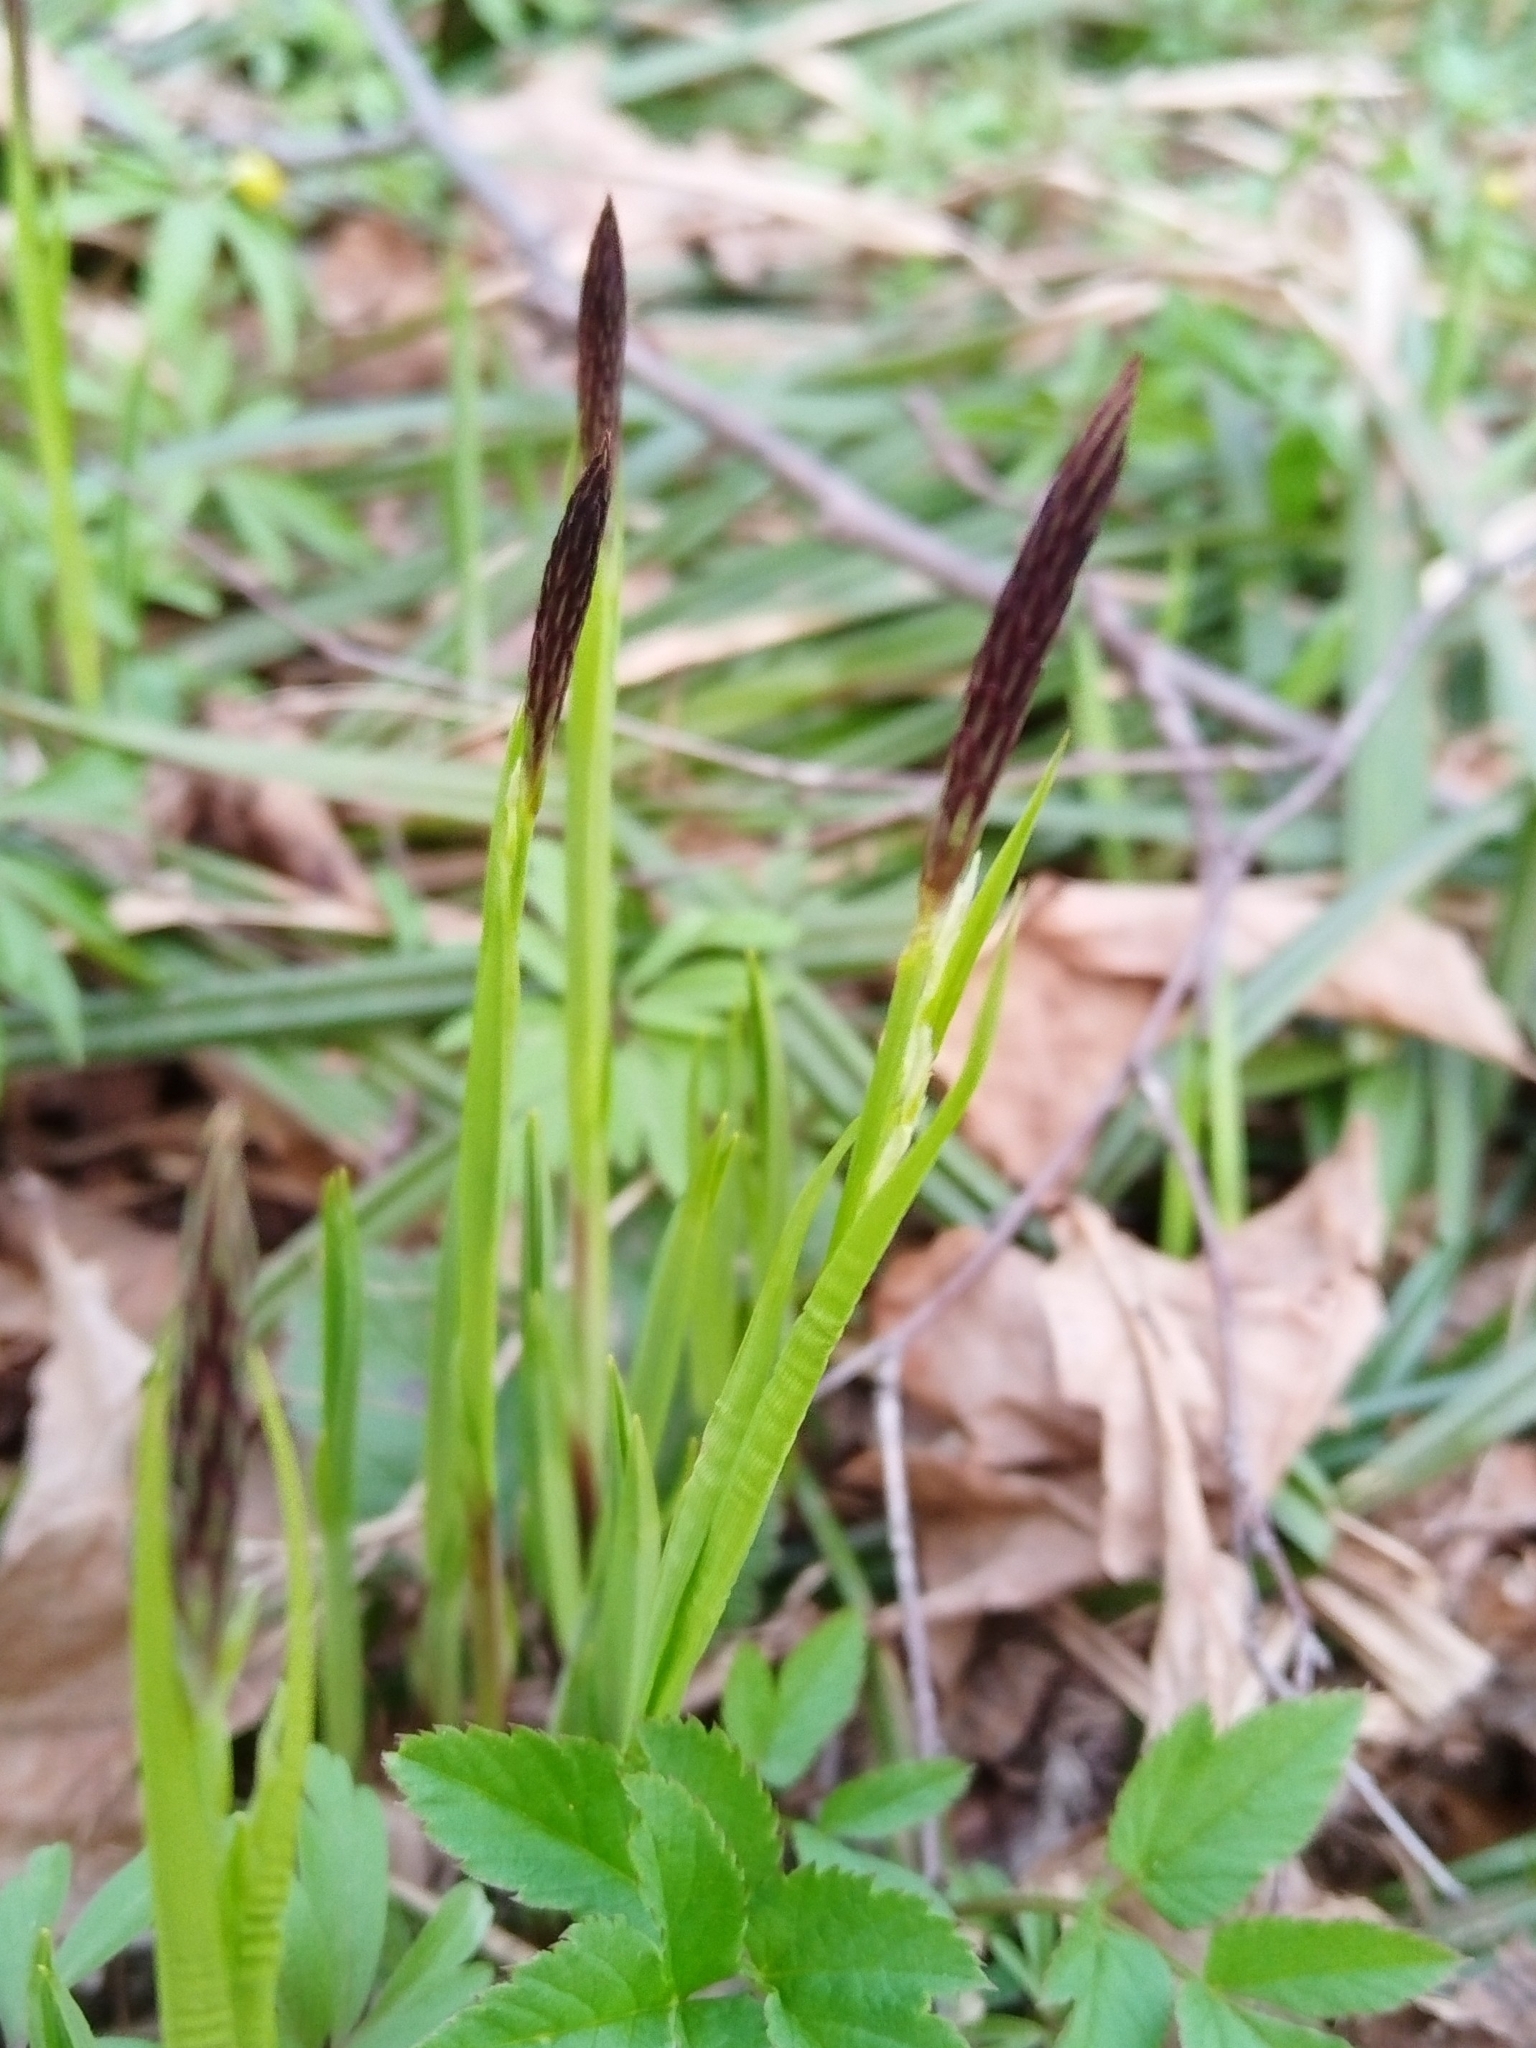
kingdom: Plantae
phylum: Tracheophyta
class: Liliopsida
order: Poales
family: Cyperaceae
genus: Carex
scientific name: Carex pilosa
